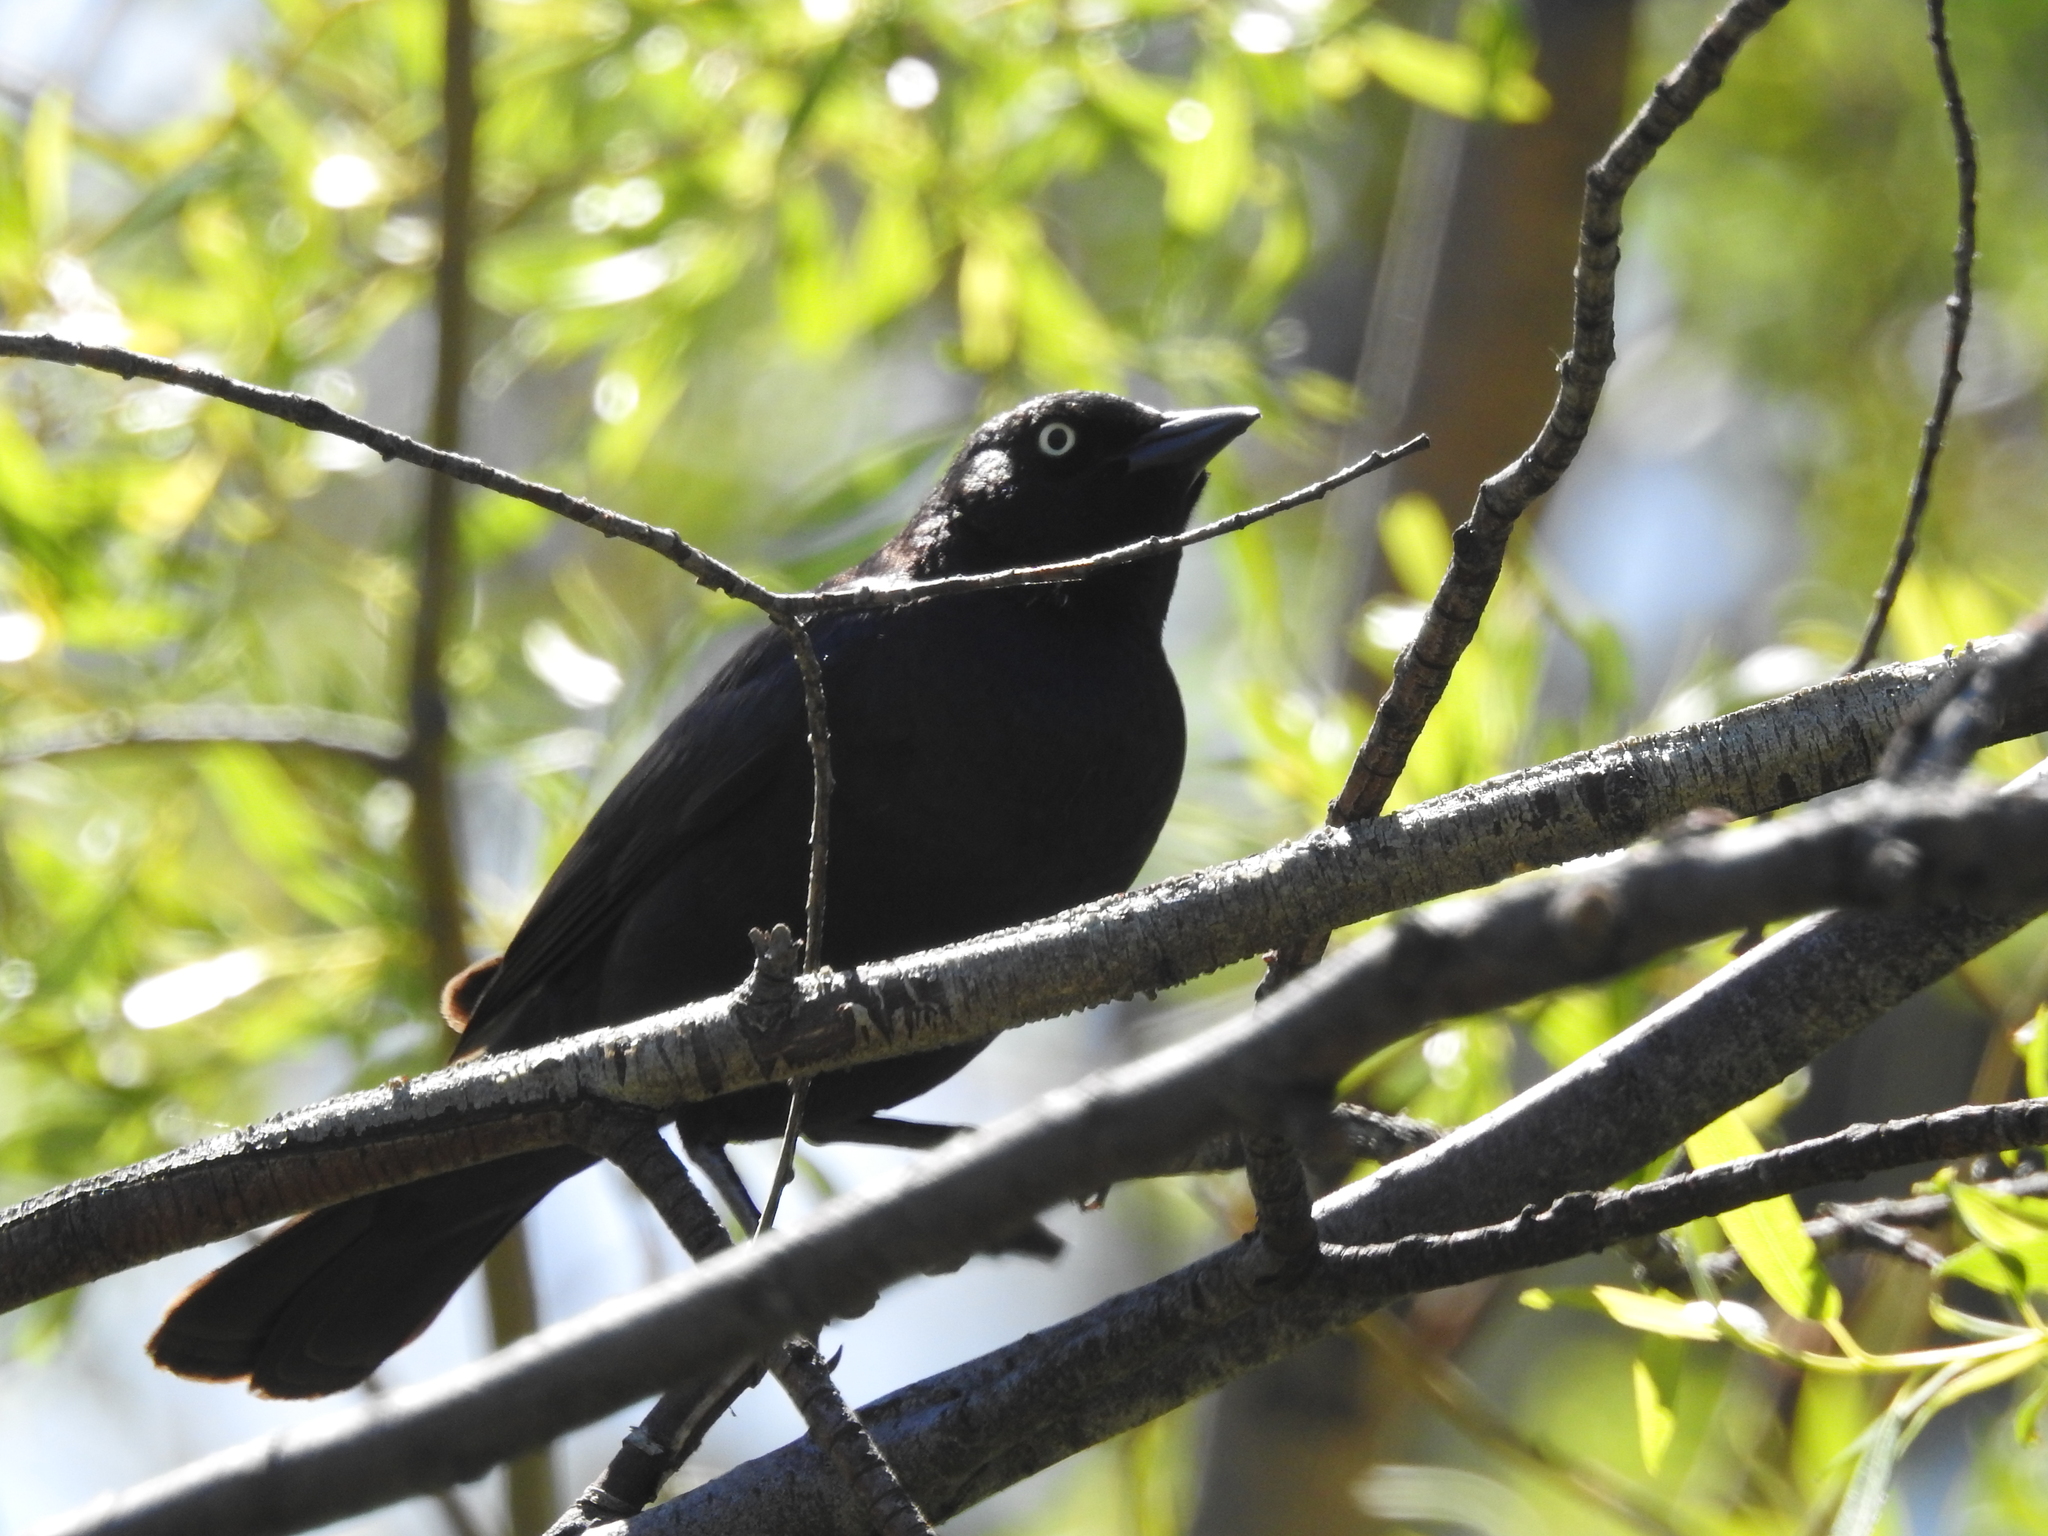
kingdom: Animalia
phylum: Chordata
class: Aves
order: Passeriformes
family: Icteridae
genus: Euphagus
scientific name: Euphagus cyanocephalus
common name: Brewer's blackbird
